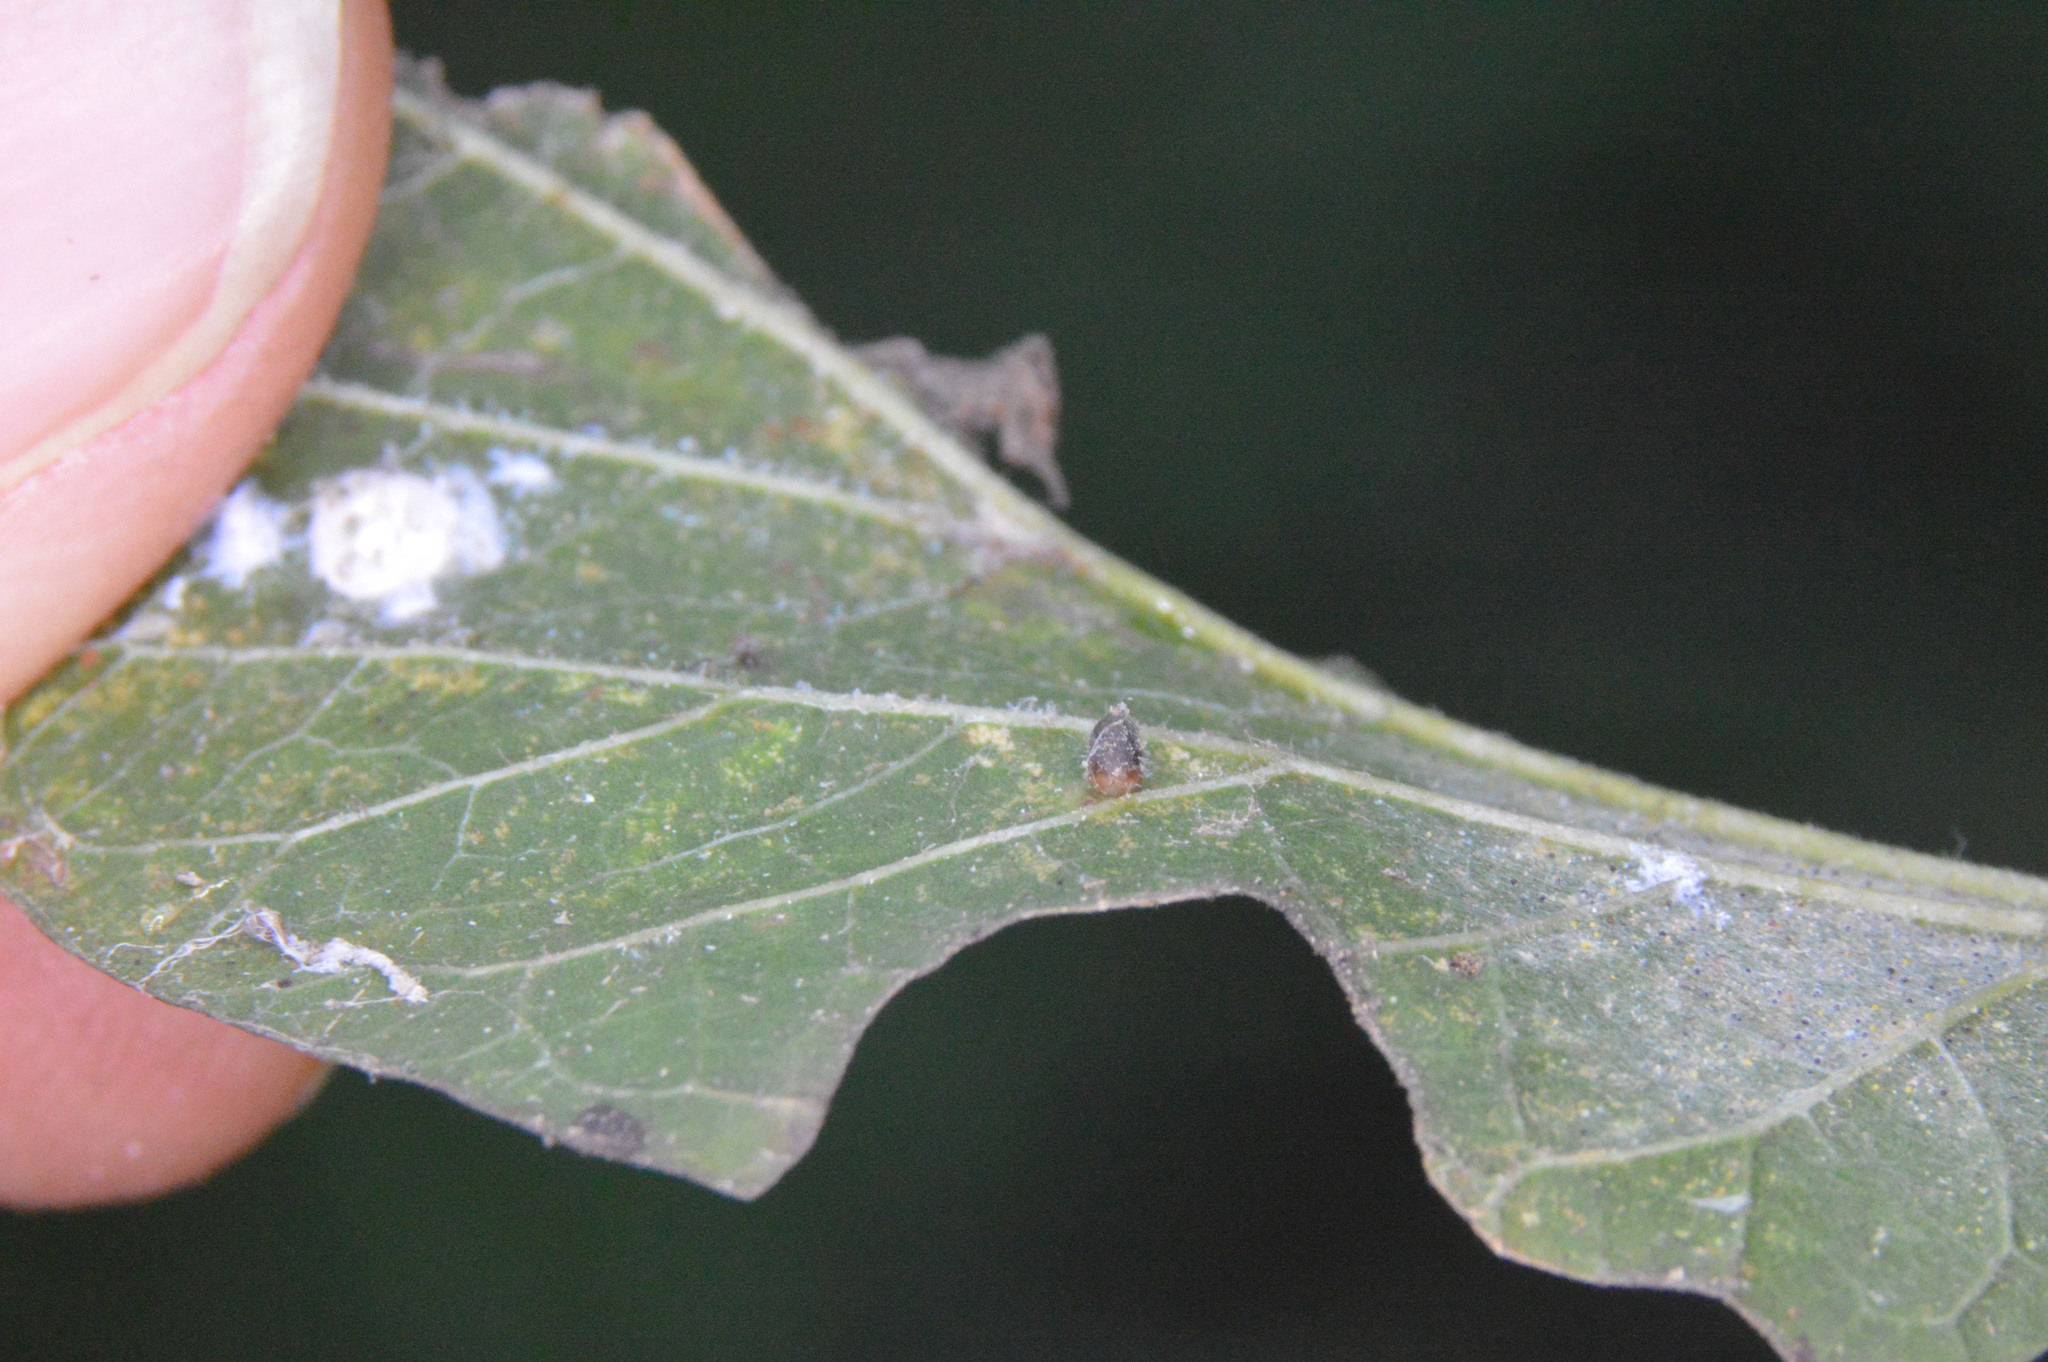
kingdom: Animalia
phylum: Arthropoda
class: Insecta
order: Diptera
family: Cecidomyiidae
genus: Celticecis
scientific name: Celticecis cupiformis
